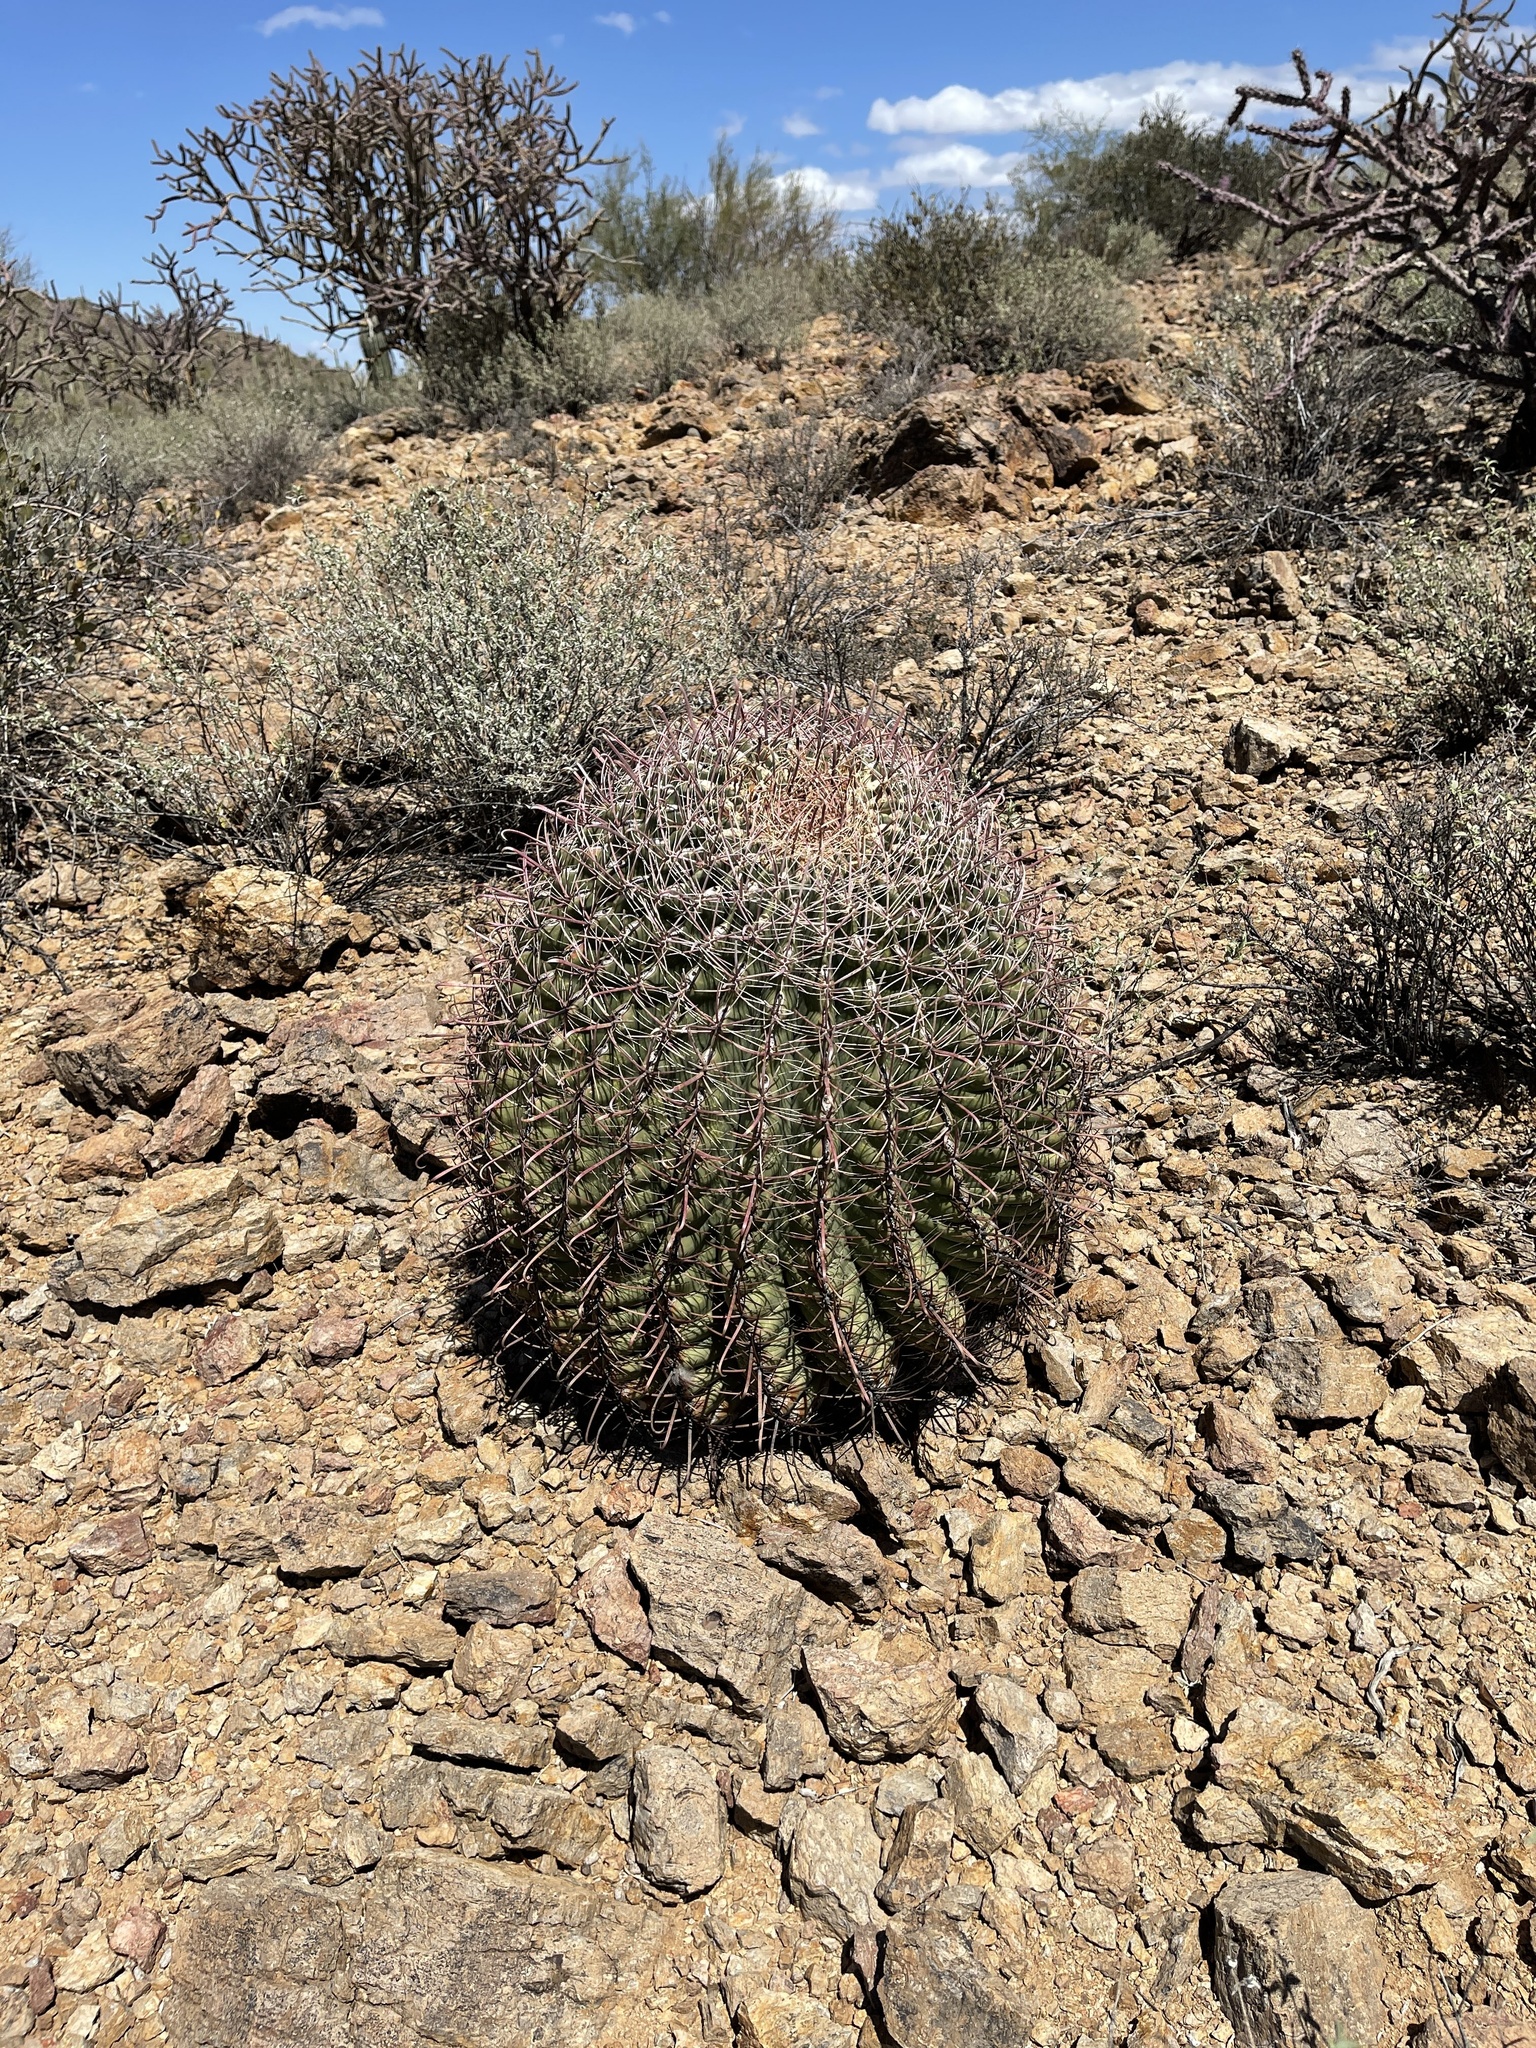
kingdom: Plantae
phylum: Tracheophyta
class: Magnoliopsida
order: Caryophyllales
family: Cactaceae
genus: Ferocactus
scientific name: Ferocactus wislizeni
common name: Candy barrel cactus
